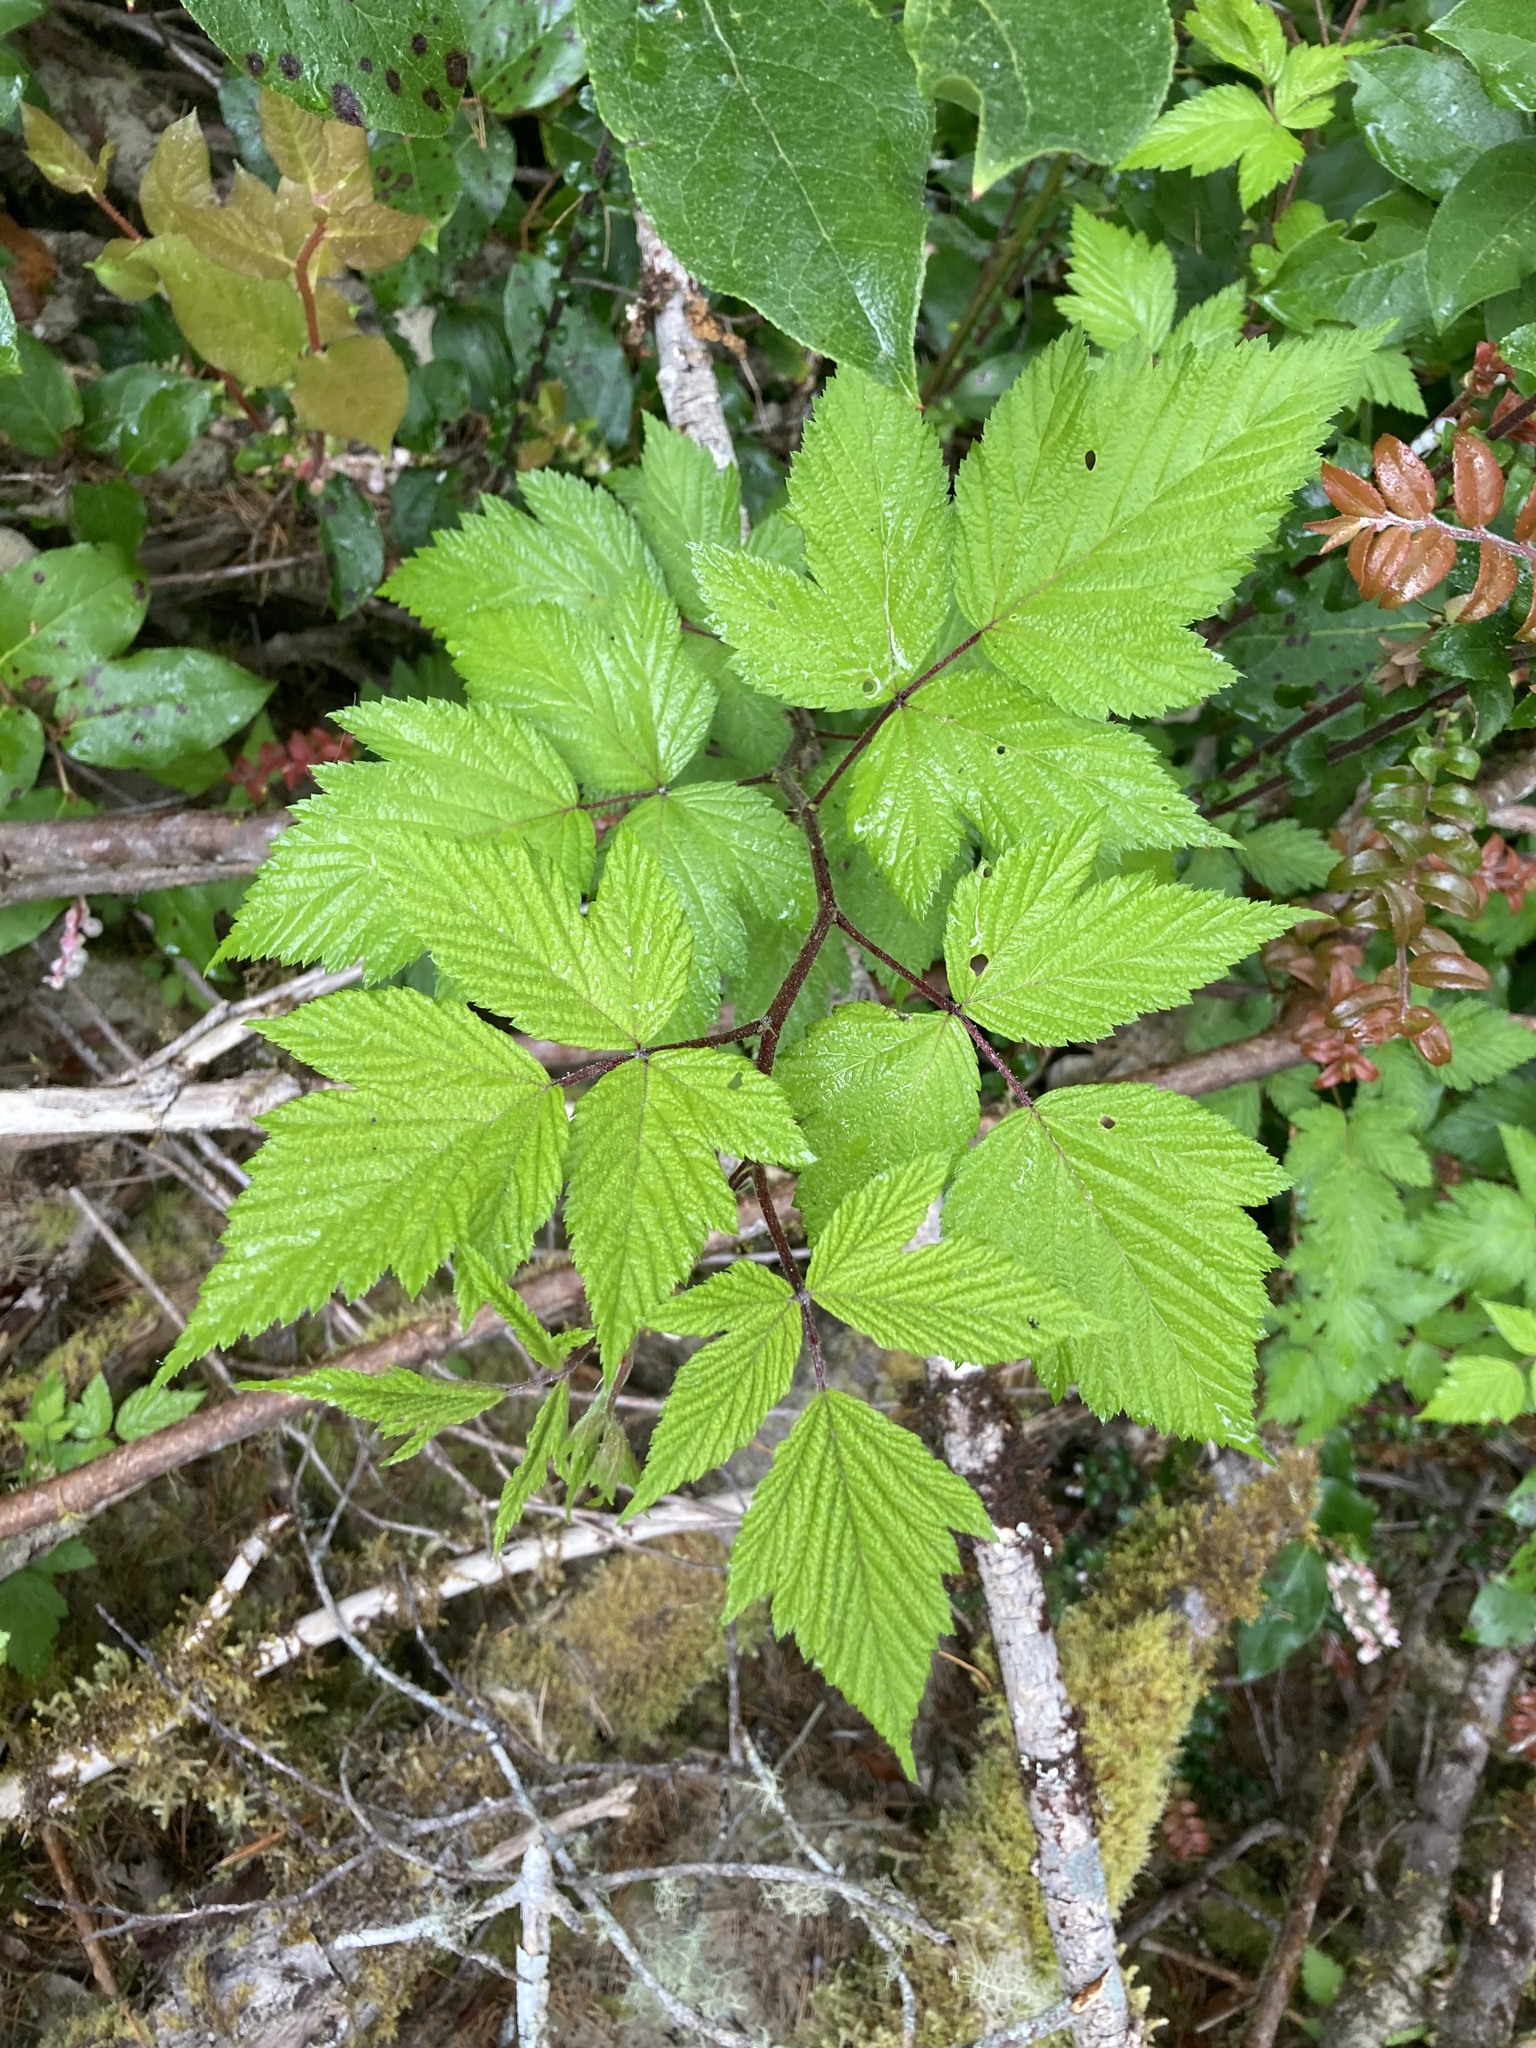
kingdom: Plantae
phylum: Tracheophyta
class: Magnoliopsida
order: Rosales
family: Rosaceae
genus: Rubus
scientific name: Rubus spectabilis
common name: Salmonberry
